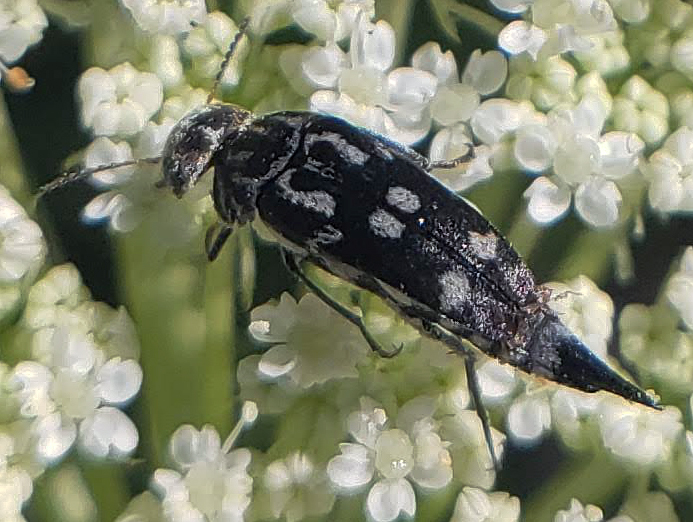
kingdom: Animalia
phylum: Arthropoda
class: Insecta
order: Coleoptera
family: Mordellidae
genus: Hoshihananomia
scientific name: Hoshihananomia octopunctata
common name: Eight-spotted tumbling flower beetle
